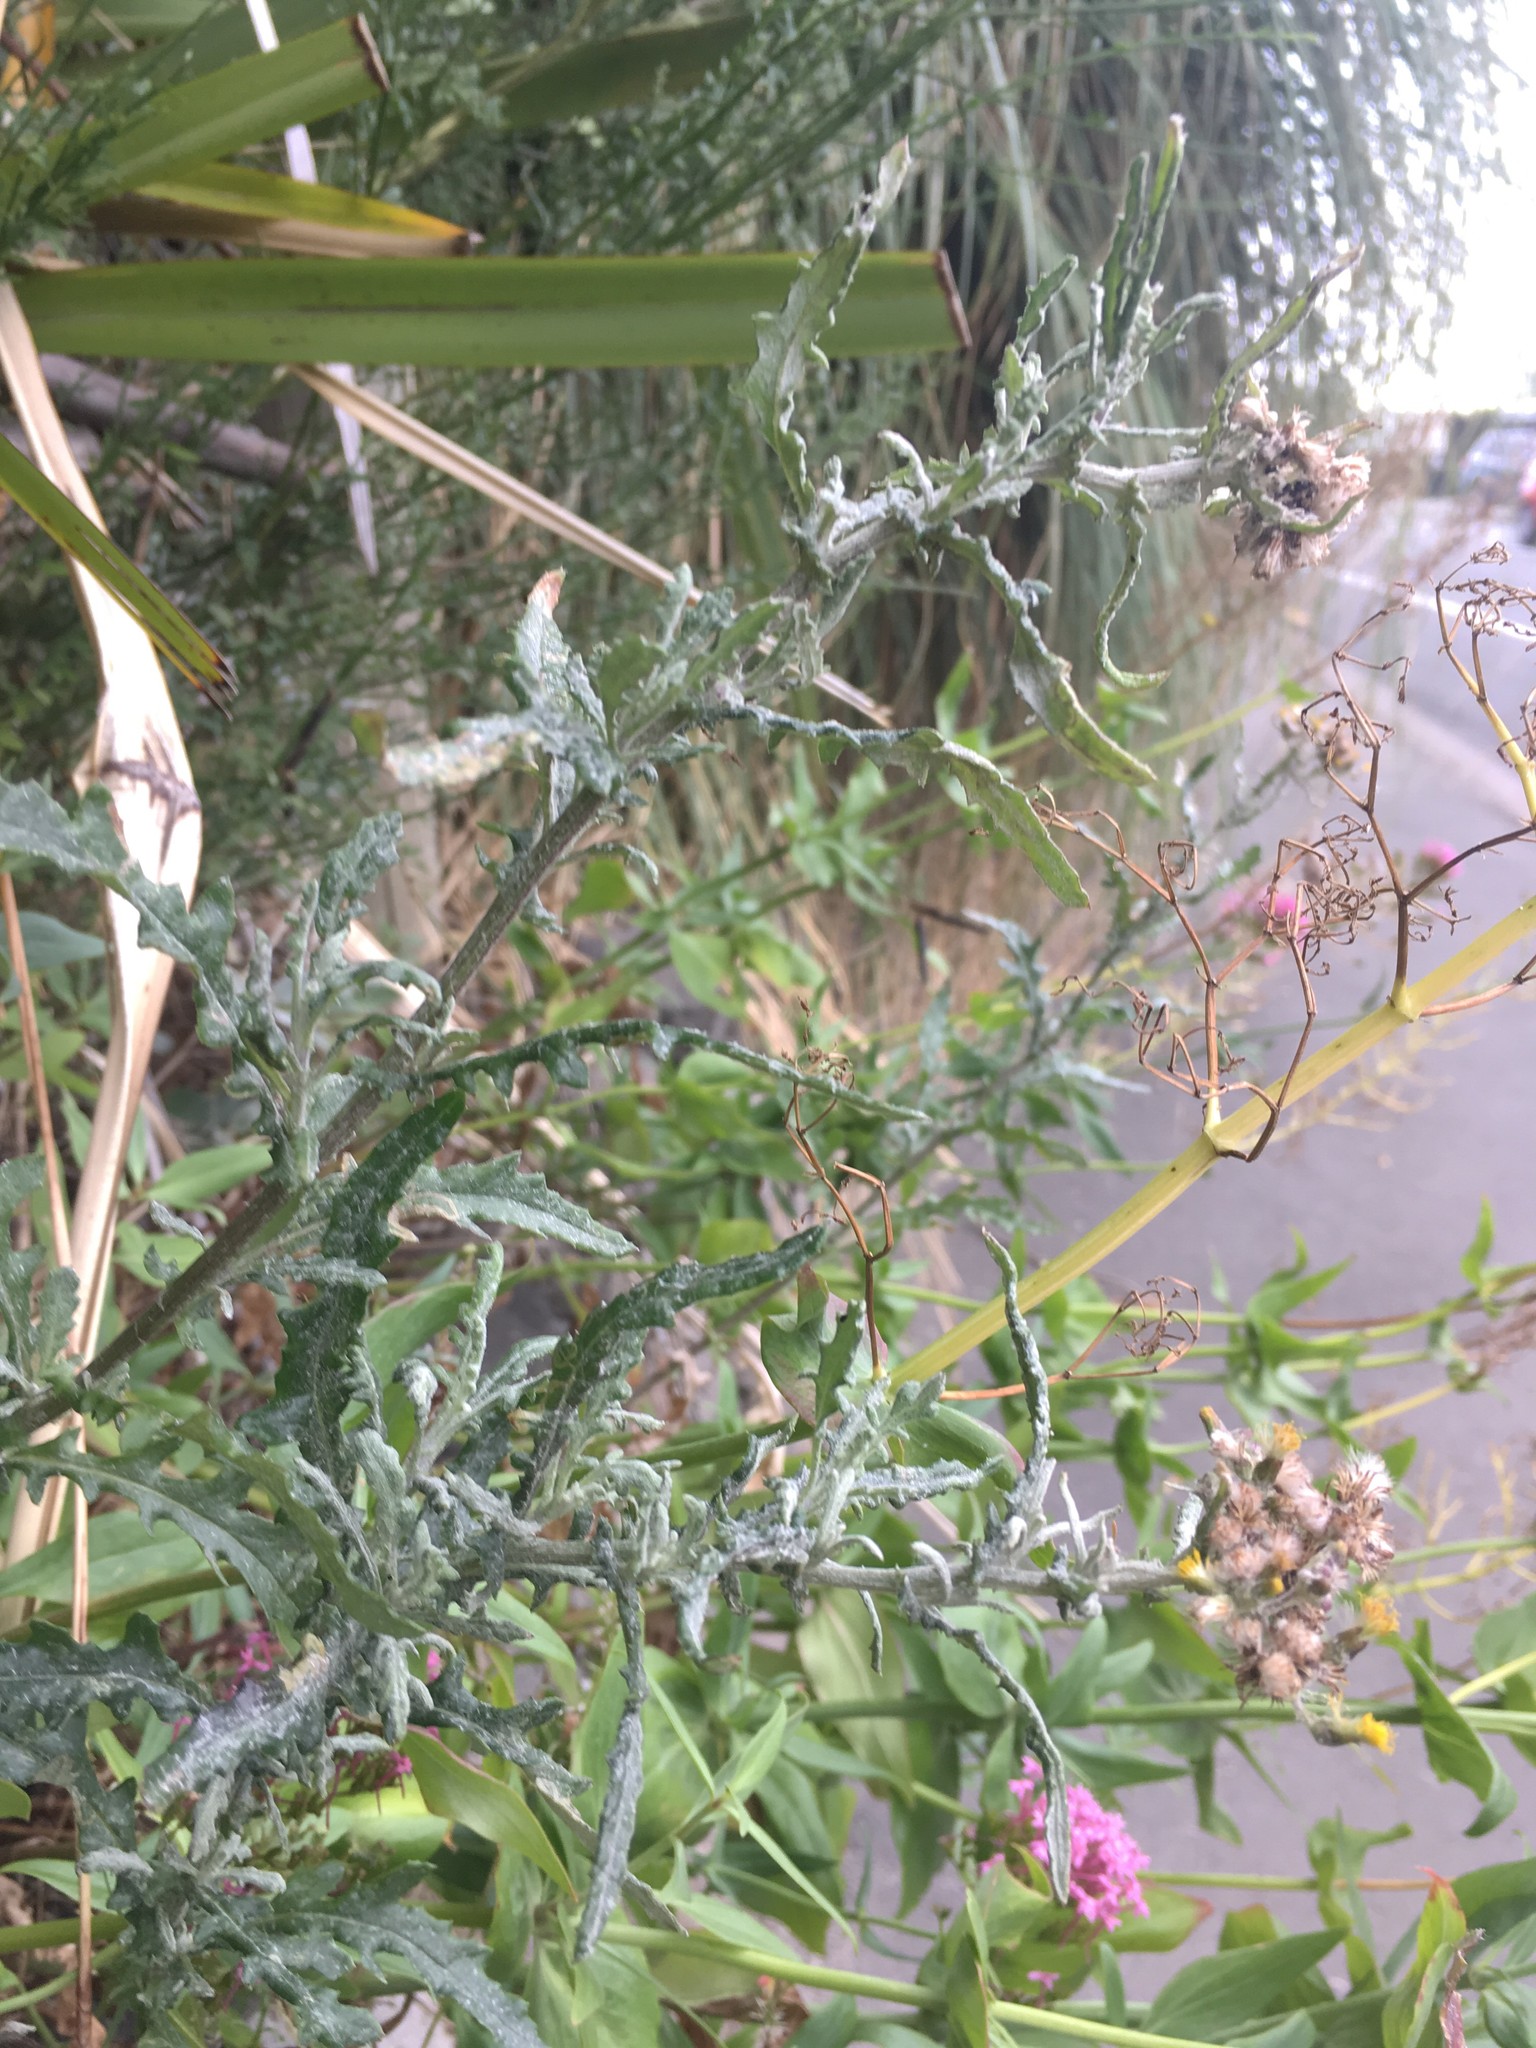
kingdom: Plantae
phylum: Tracheophyta
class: Magnoliopsida
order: Asterales
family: Asteraceae
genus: Senecio
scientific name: Senecio glomeratus
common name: Cutleaf burnweed
